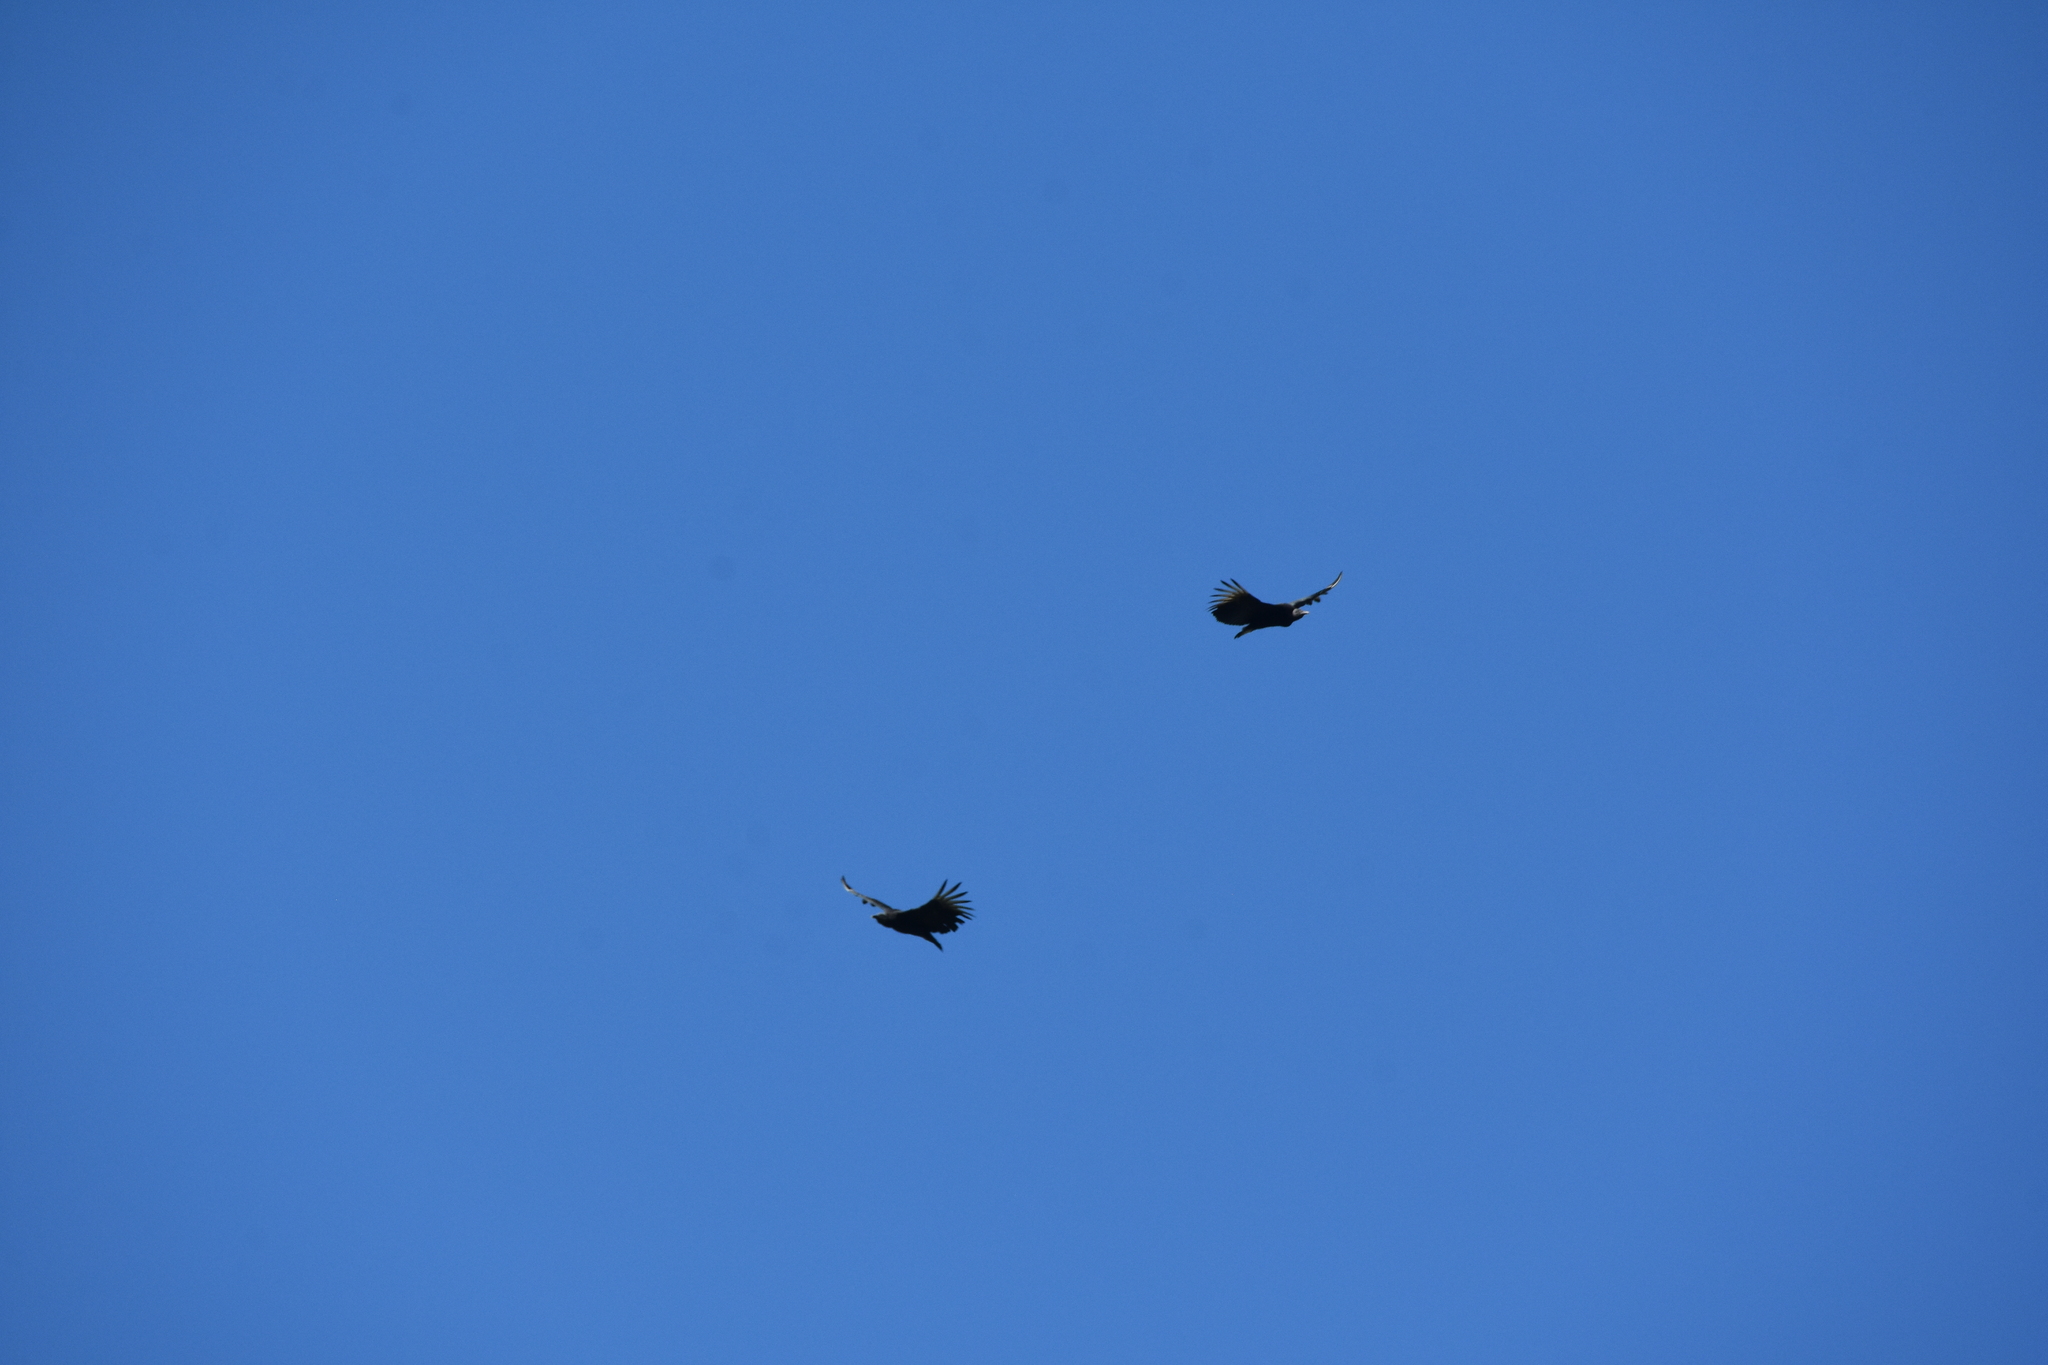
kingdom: Animalia
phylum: Chordata
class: Aves
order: Accipitriformes
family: Cathartidae
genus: Coragyps
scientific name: Coragyps atratus
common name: Black vulture
